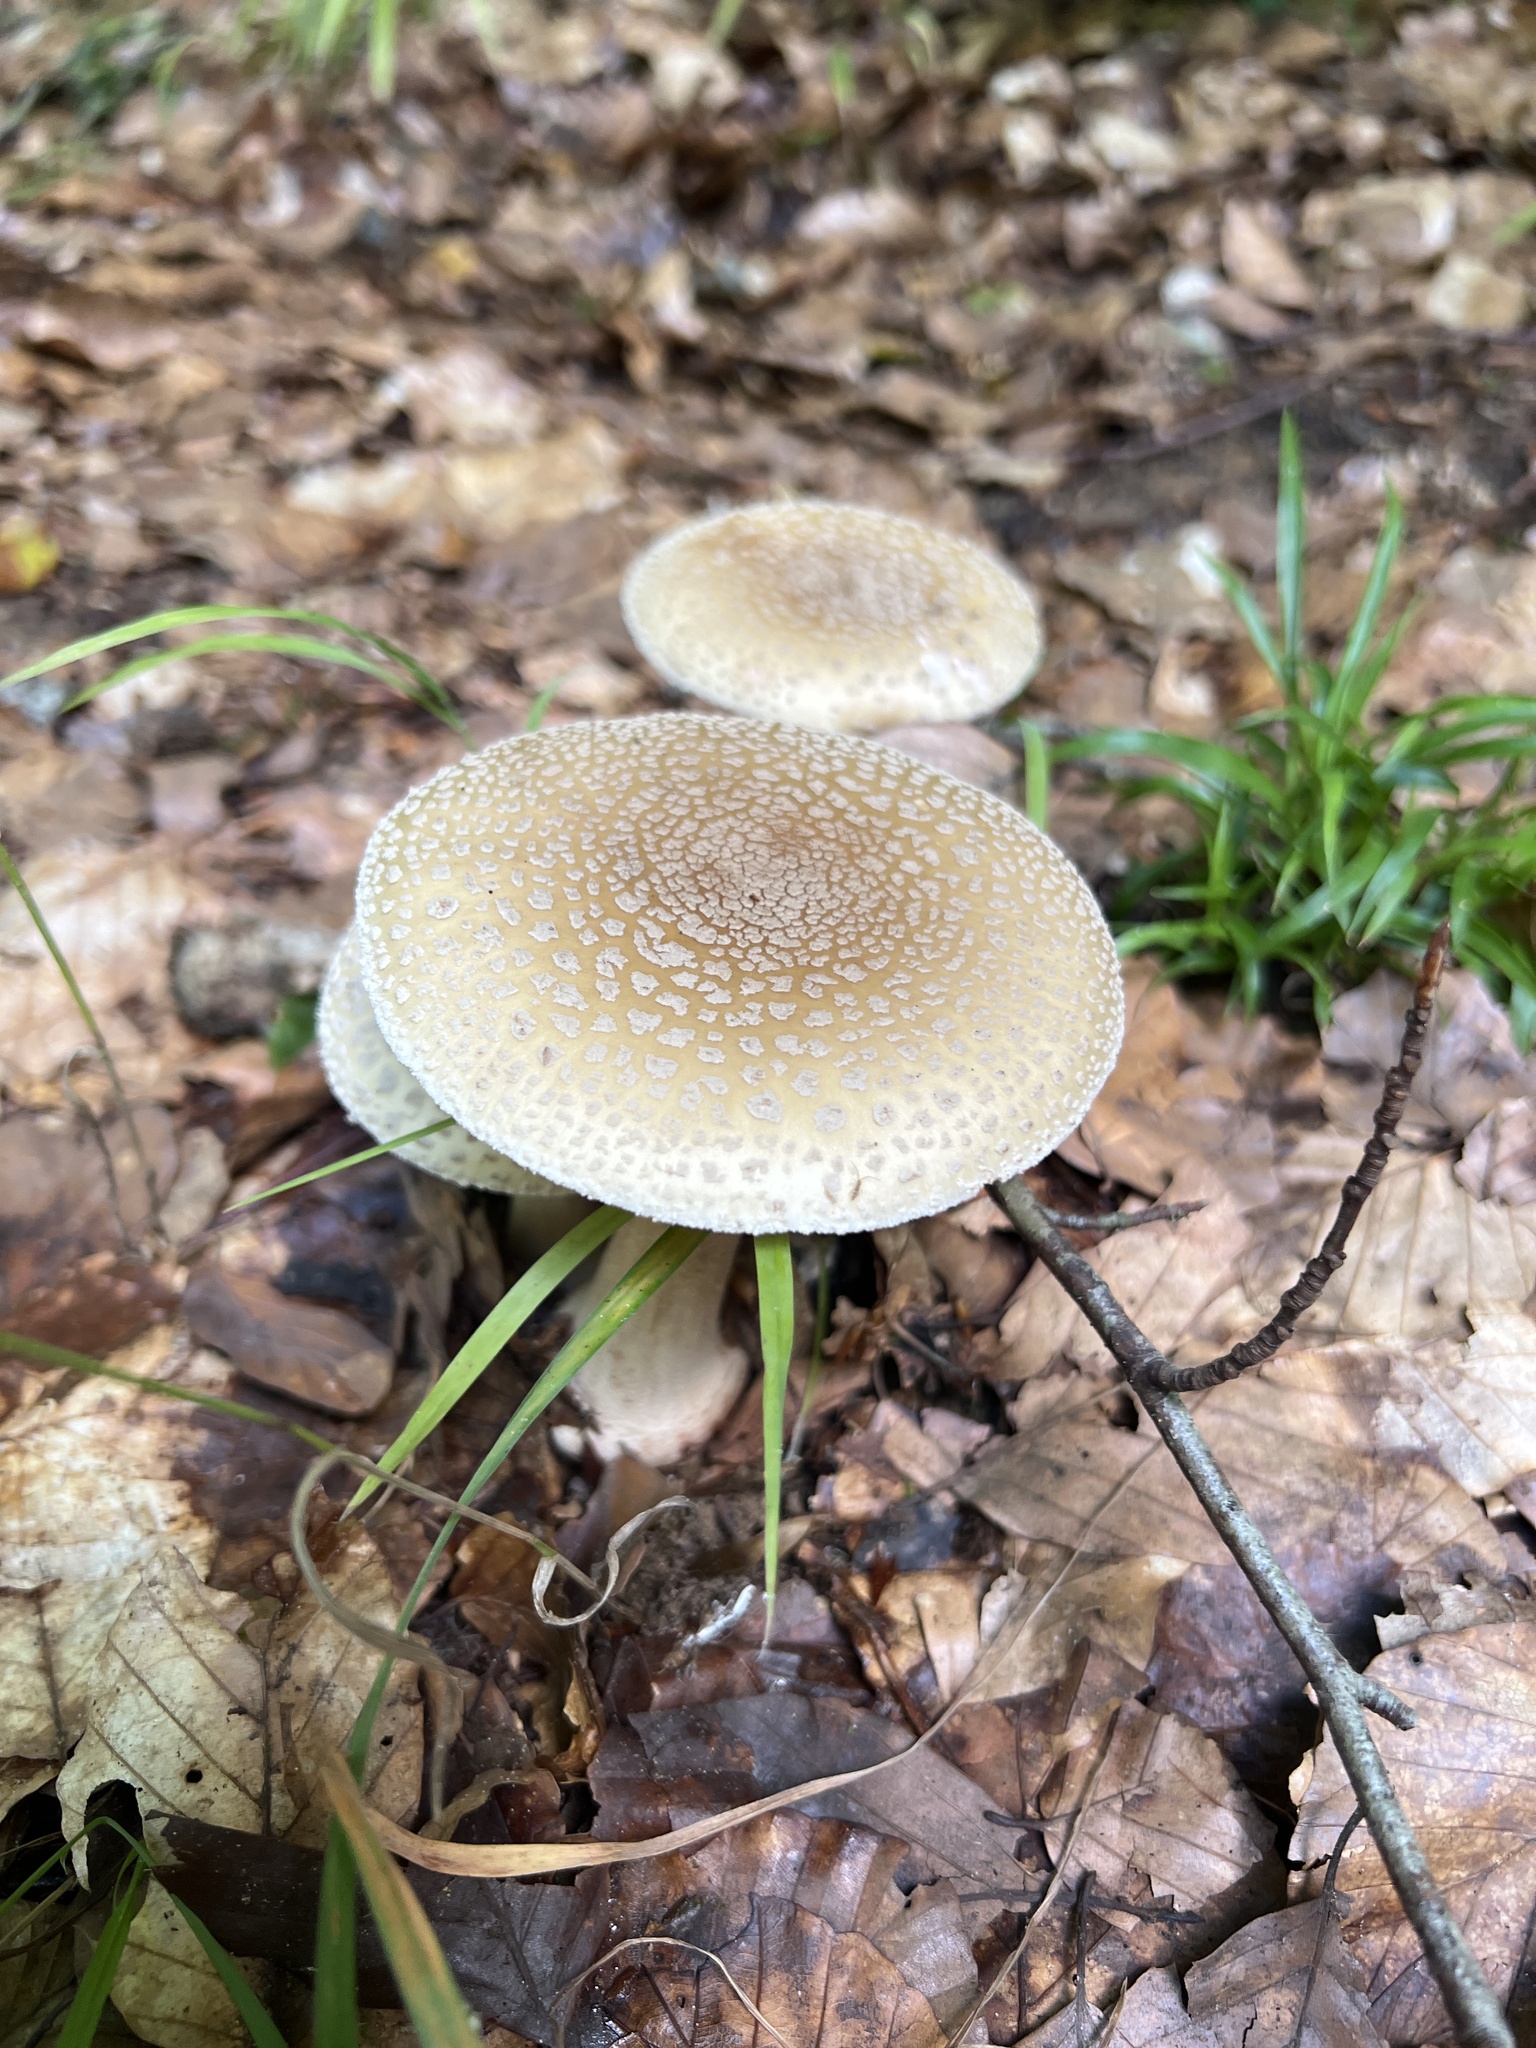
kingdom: Fungi
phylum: Basidiomycota
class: Agaricomycetes
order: Agaricales
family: Amanitaceae
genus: Amanita
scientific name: Amanita rubescens
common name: Blusher
